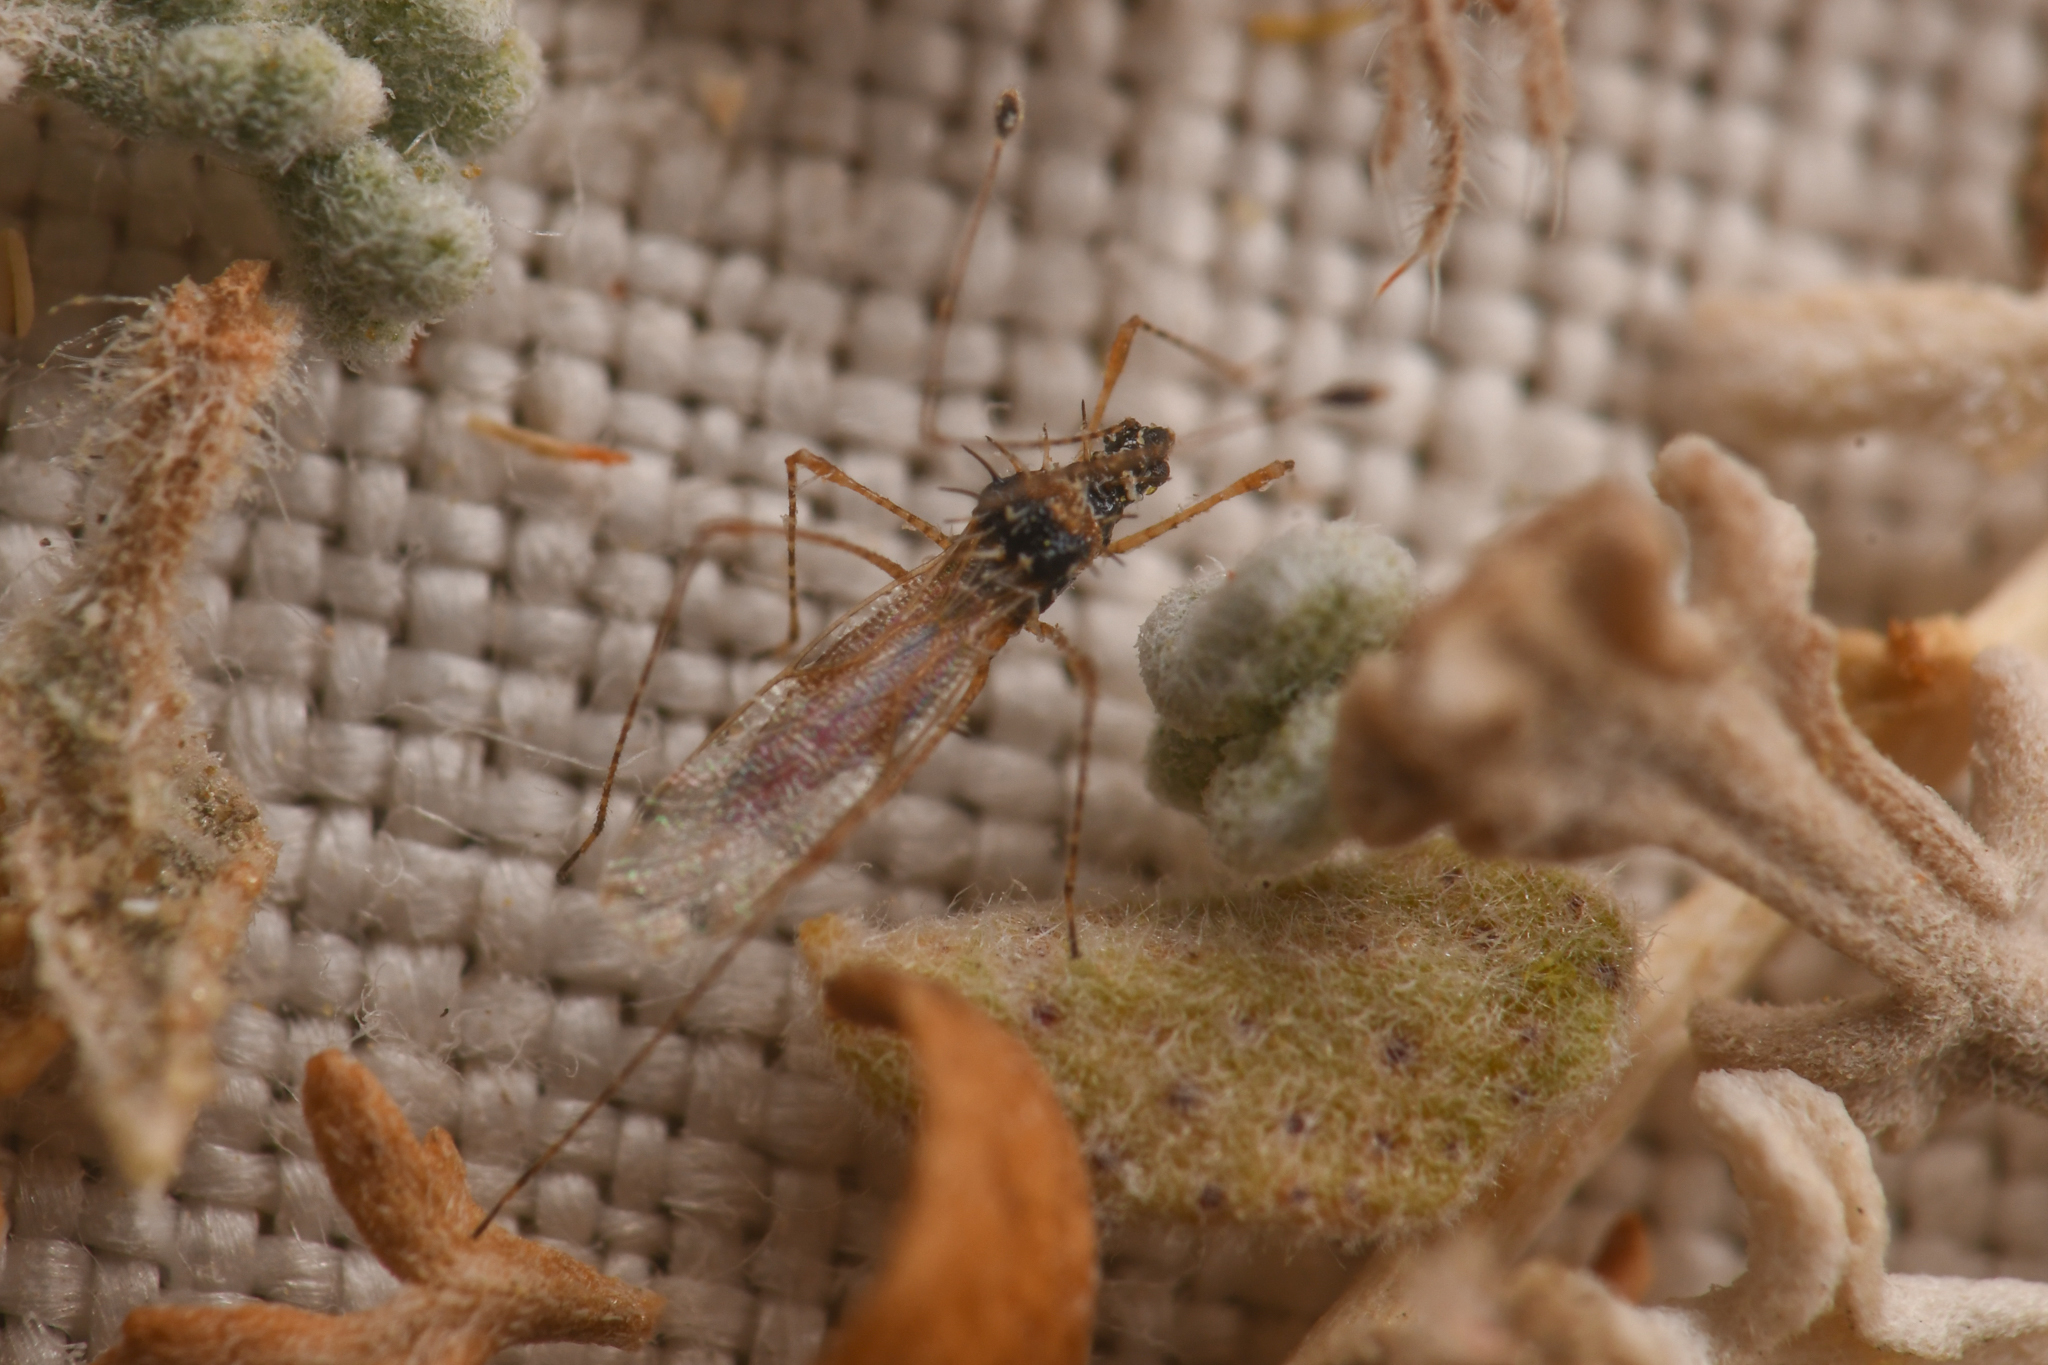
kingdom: Animalia
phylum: Arthropoda
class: Insecta
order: Hemiptera
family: Berytidae
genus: Pronotacantha
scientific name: Pronotacantha annulata
